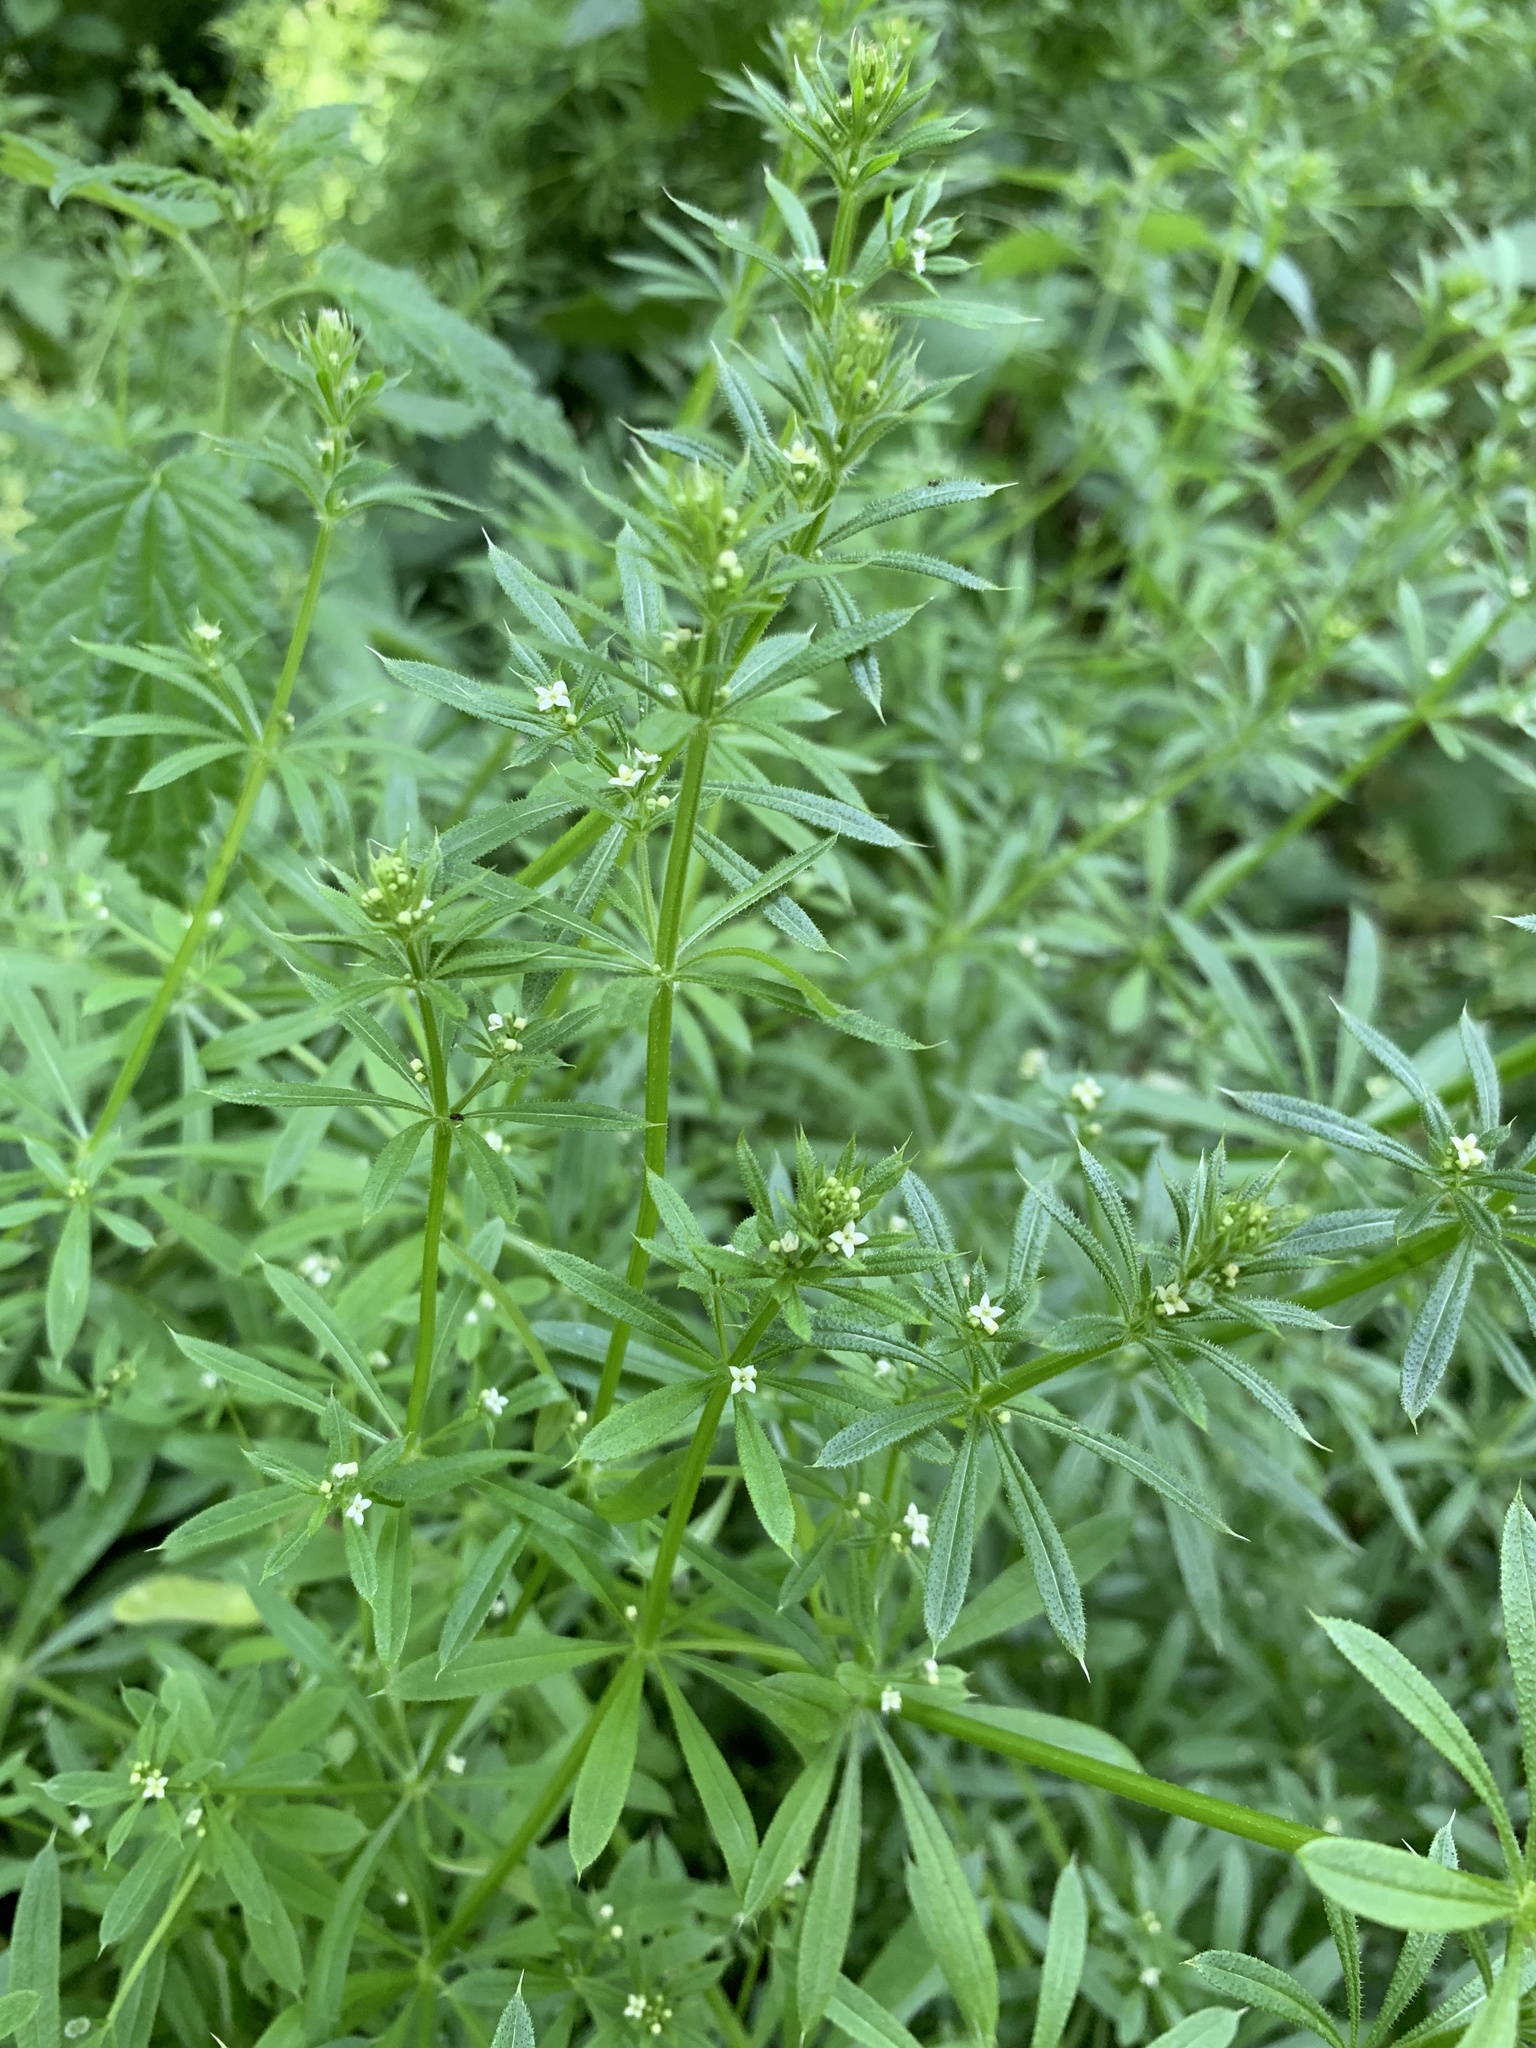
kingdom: Plantae
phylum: Tracheophyta
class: Magnoliopsida
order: Gentianales
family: Rubiaceae
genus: Galium
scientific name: Galium aparine
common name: Cleavers
